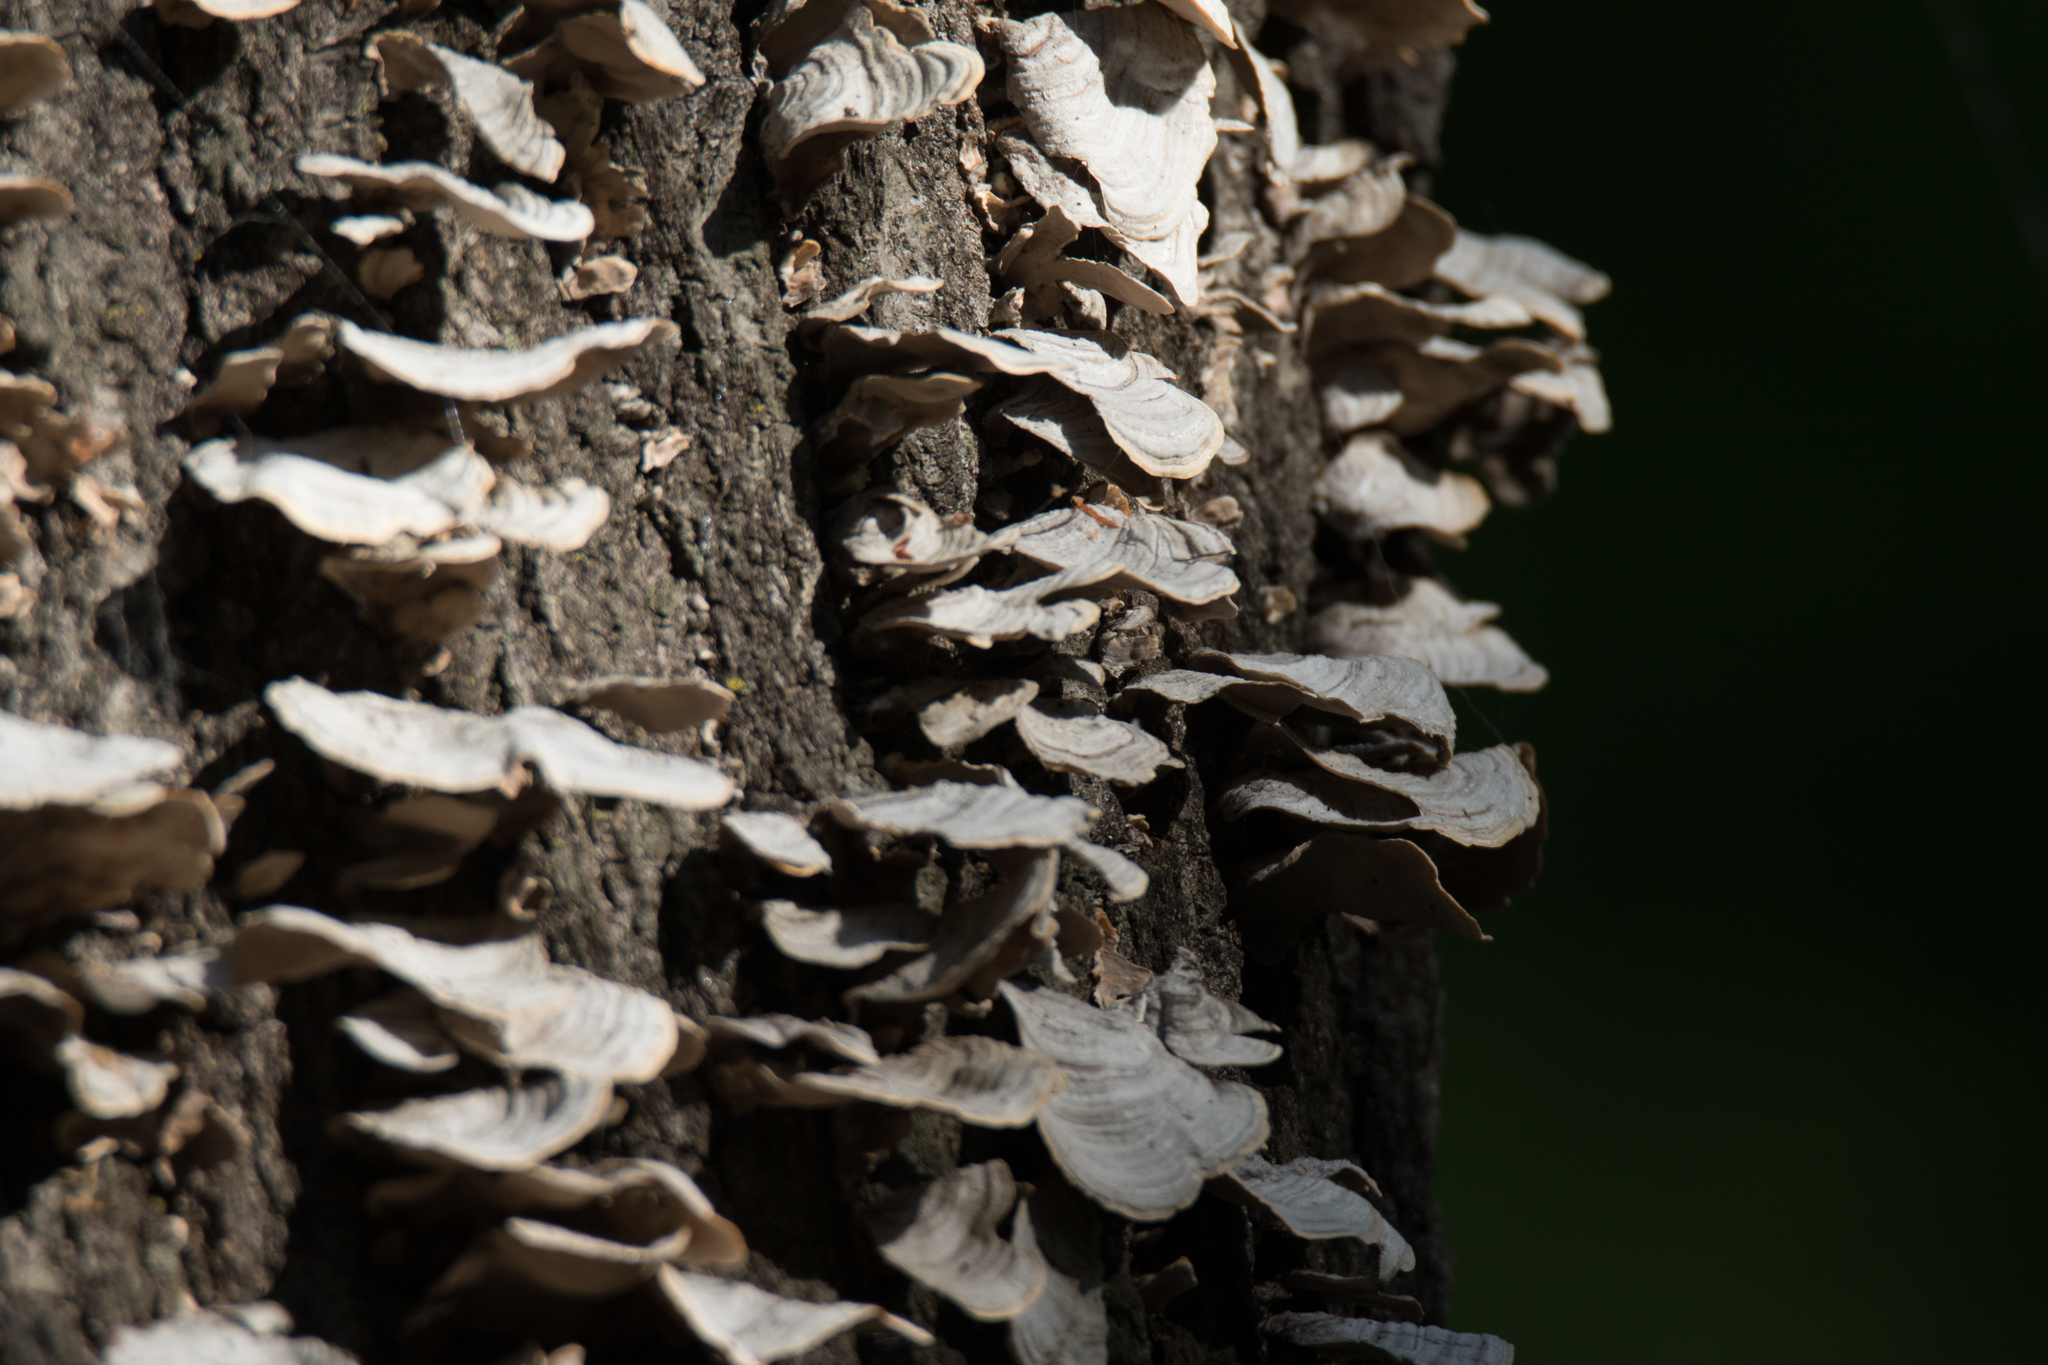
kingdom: Fungi
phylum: Basidiomycota
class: Agaricomycetes
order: Russulales
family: Stereaceae
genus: Stereum
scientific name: Stereum ostrea
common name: False turkeytail
